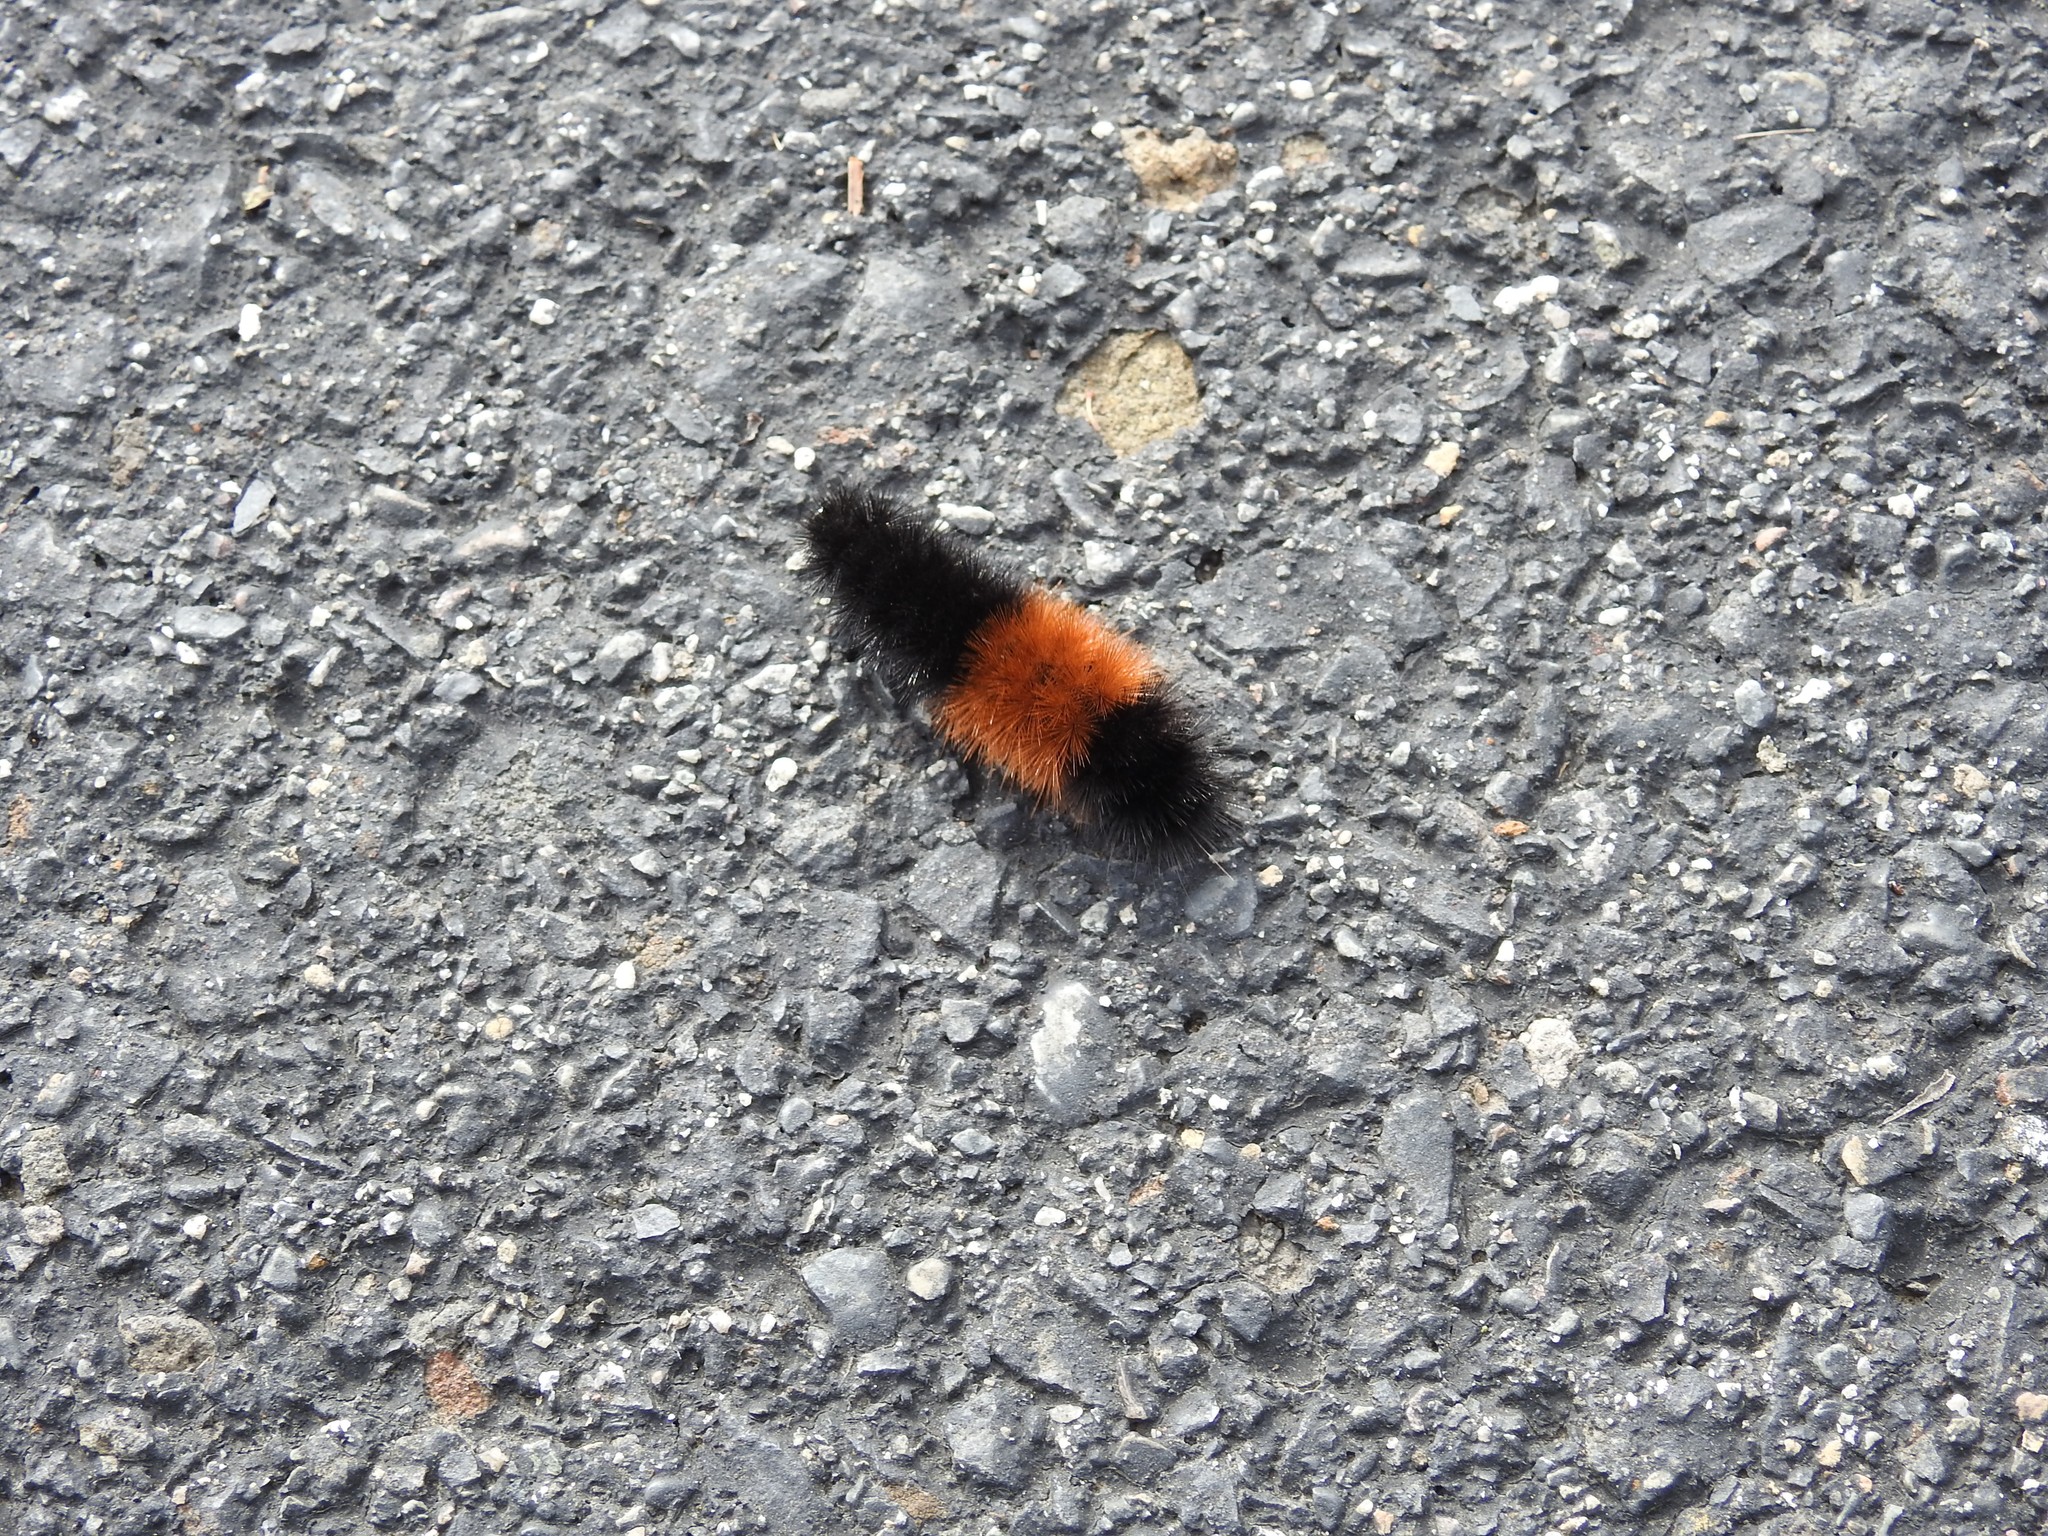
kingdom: Animalia
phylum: Arthropoda
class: Insecta
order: Lepidoptera
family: Erebidae
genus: Pyrrharctia
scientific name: Pyrrharctia isabella
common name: Isabella tiger moth
